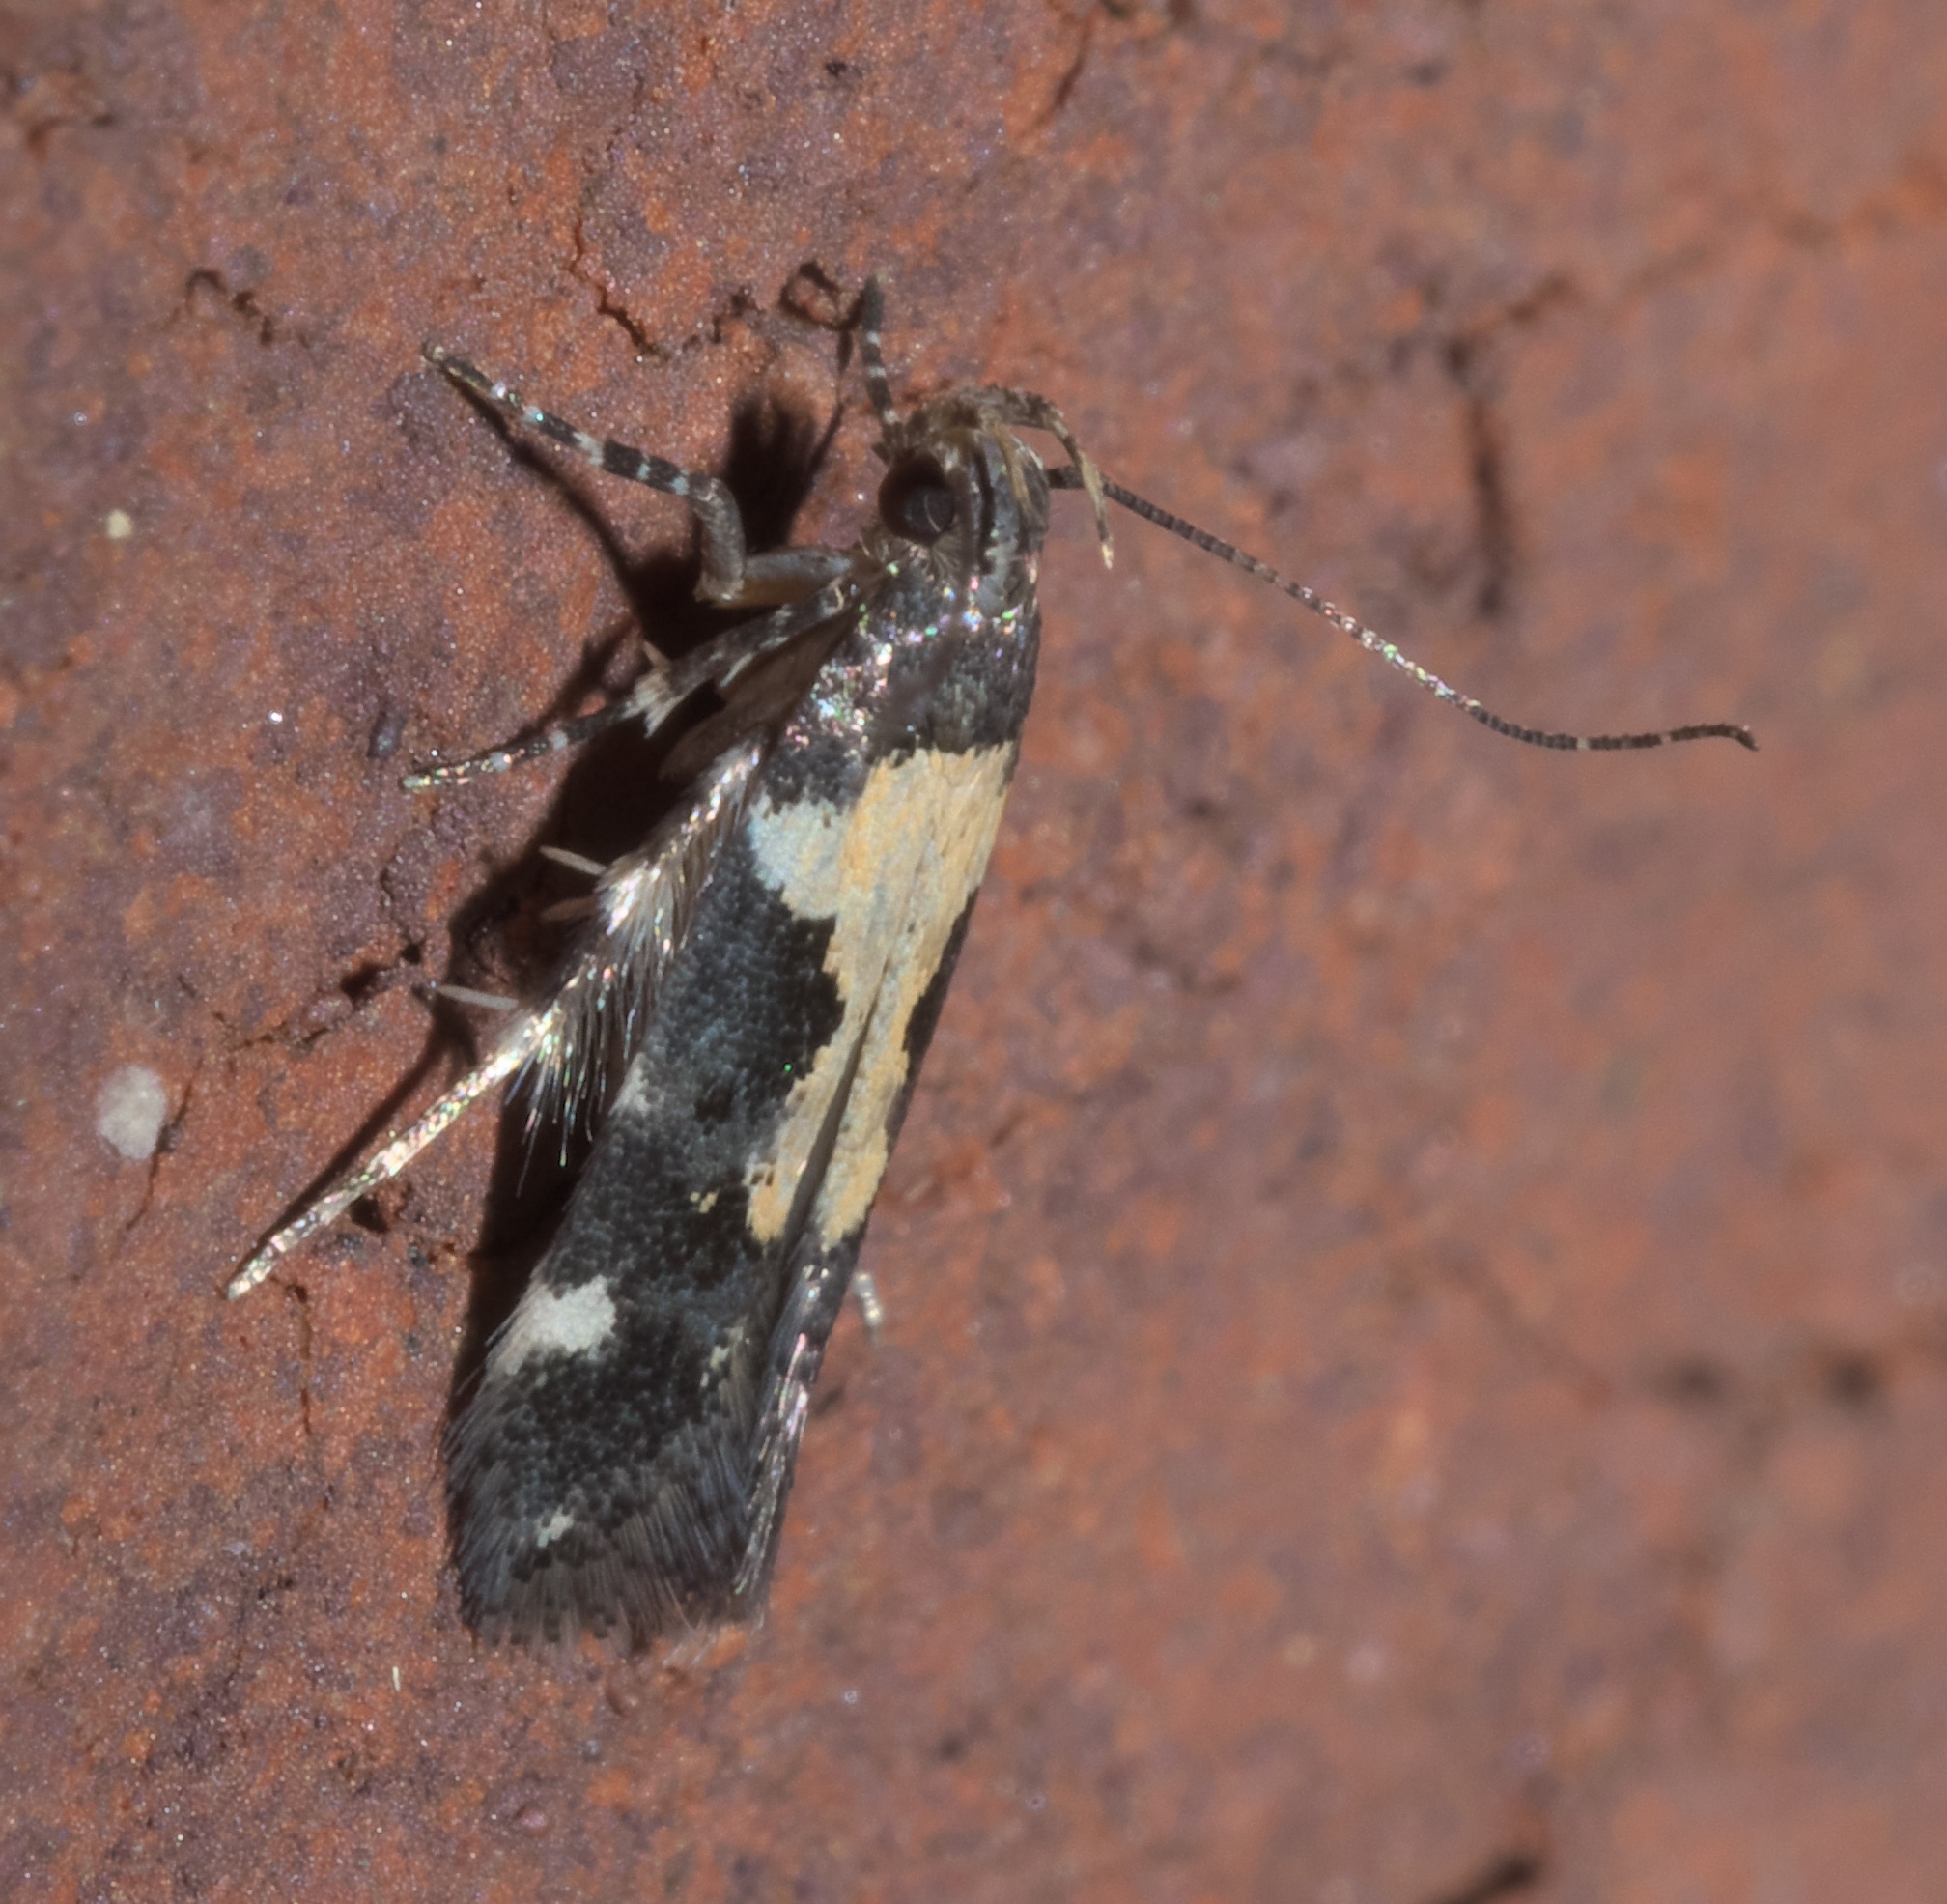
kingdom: Animalia
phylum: Arthropoda
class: Insecta
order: Lepidoptera
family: Gelechiidae
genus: Stegasta
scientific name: Stegasta bosqueella
